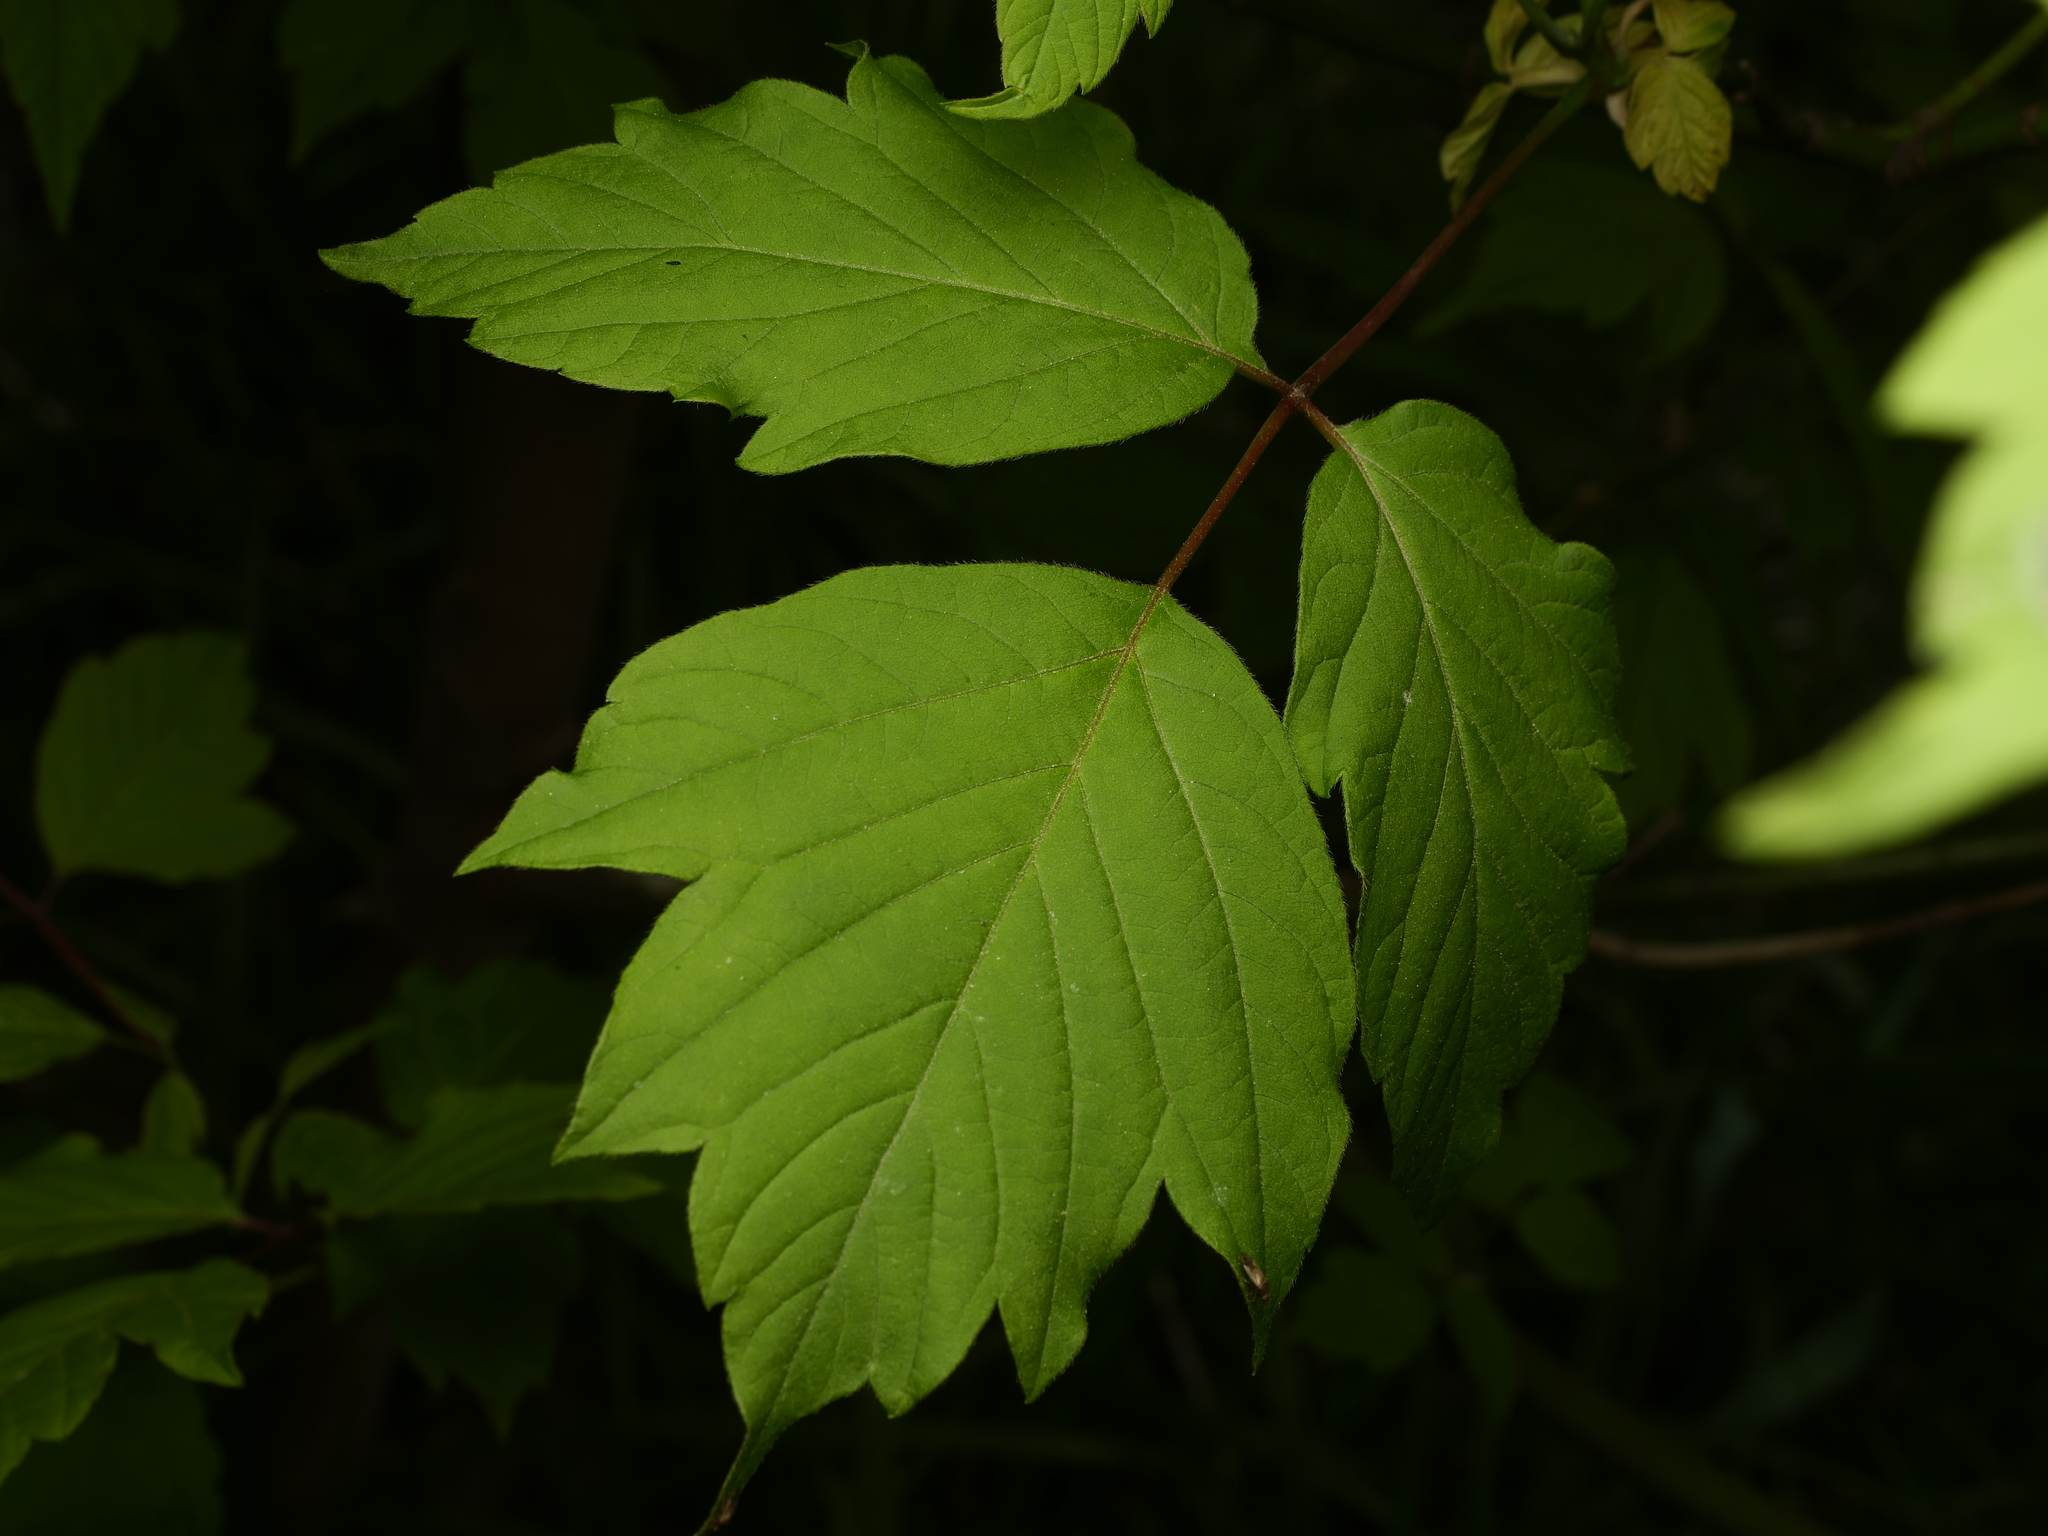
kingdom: Plantae
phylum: Tracheophyta
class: Magnoliopsida
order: Sapindales
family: Sapindaceae
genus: Acer
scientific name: Acer negundo
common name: Ashleaf maple
